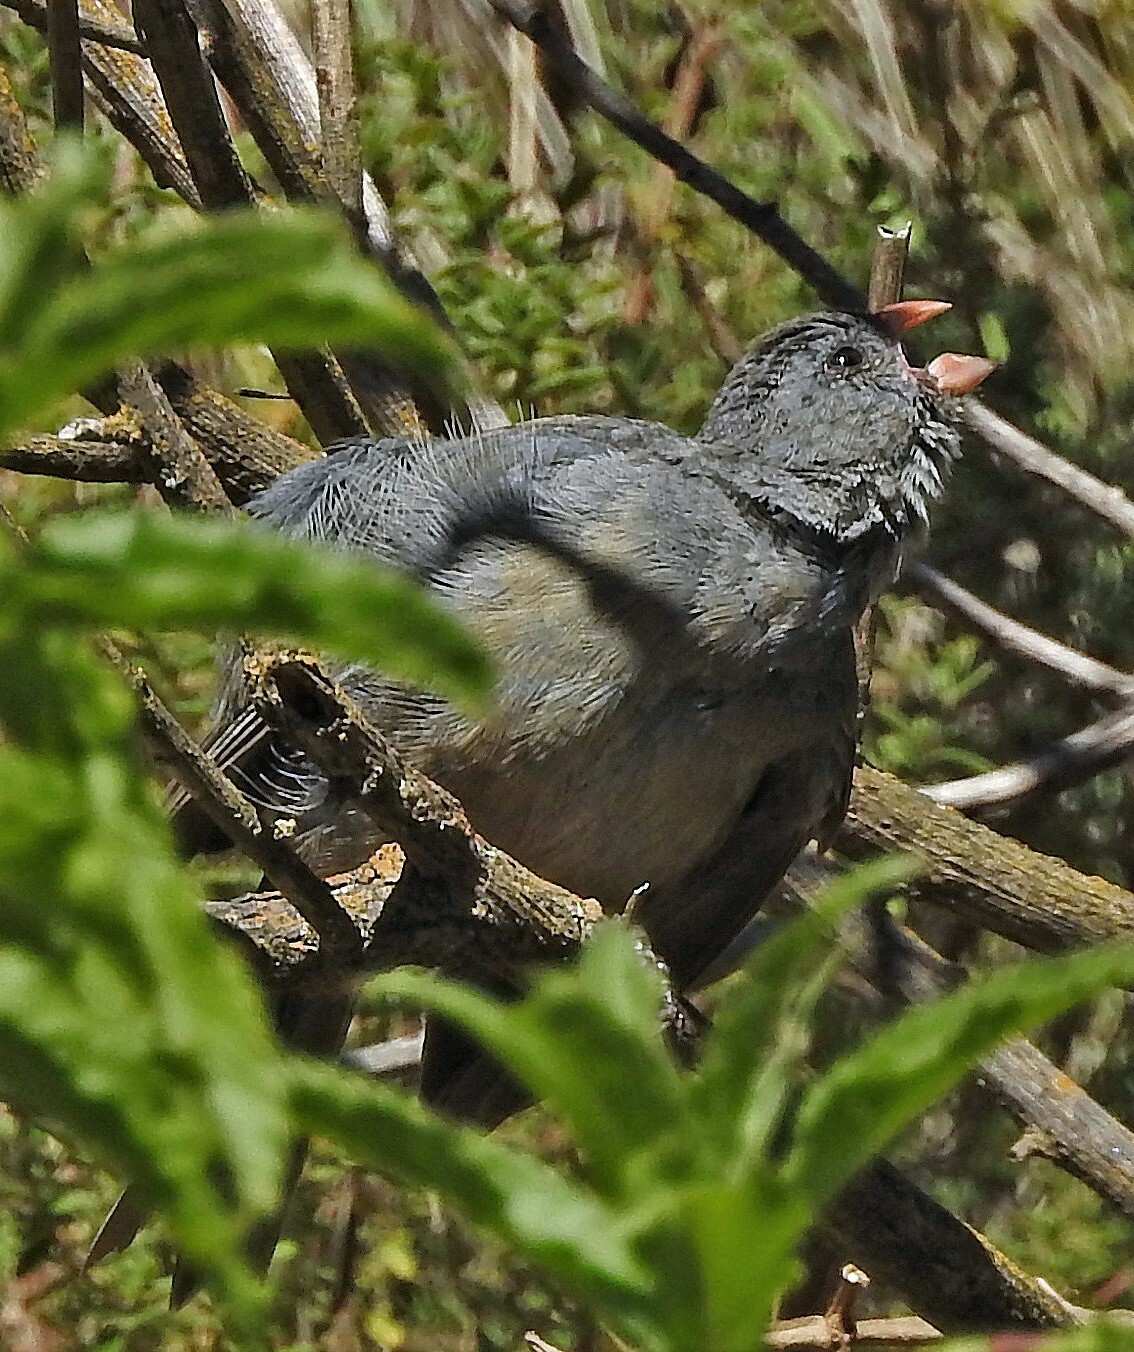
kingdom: Animalia
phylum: Chordata
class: Aves
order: Passeriformes
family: Thraupidae
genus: Catamenia
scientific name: Catamenia inornata
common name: Plain-colored seedeater
